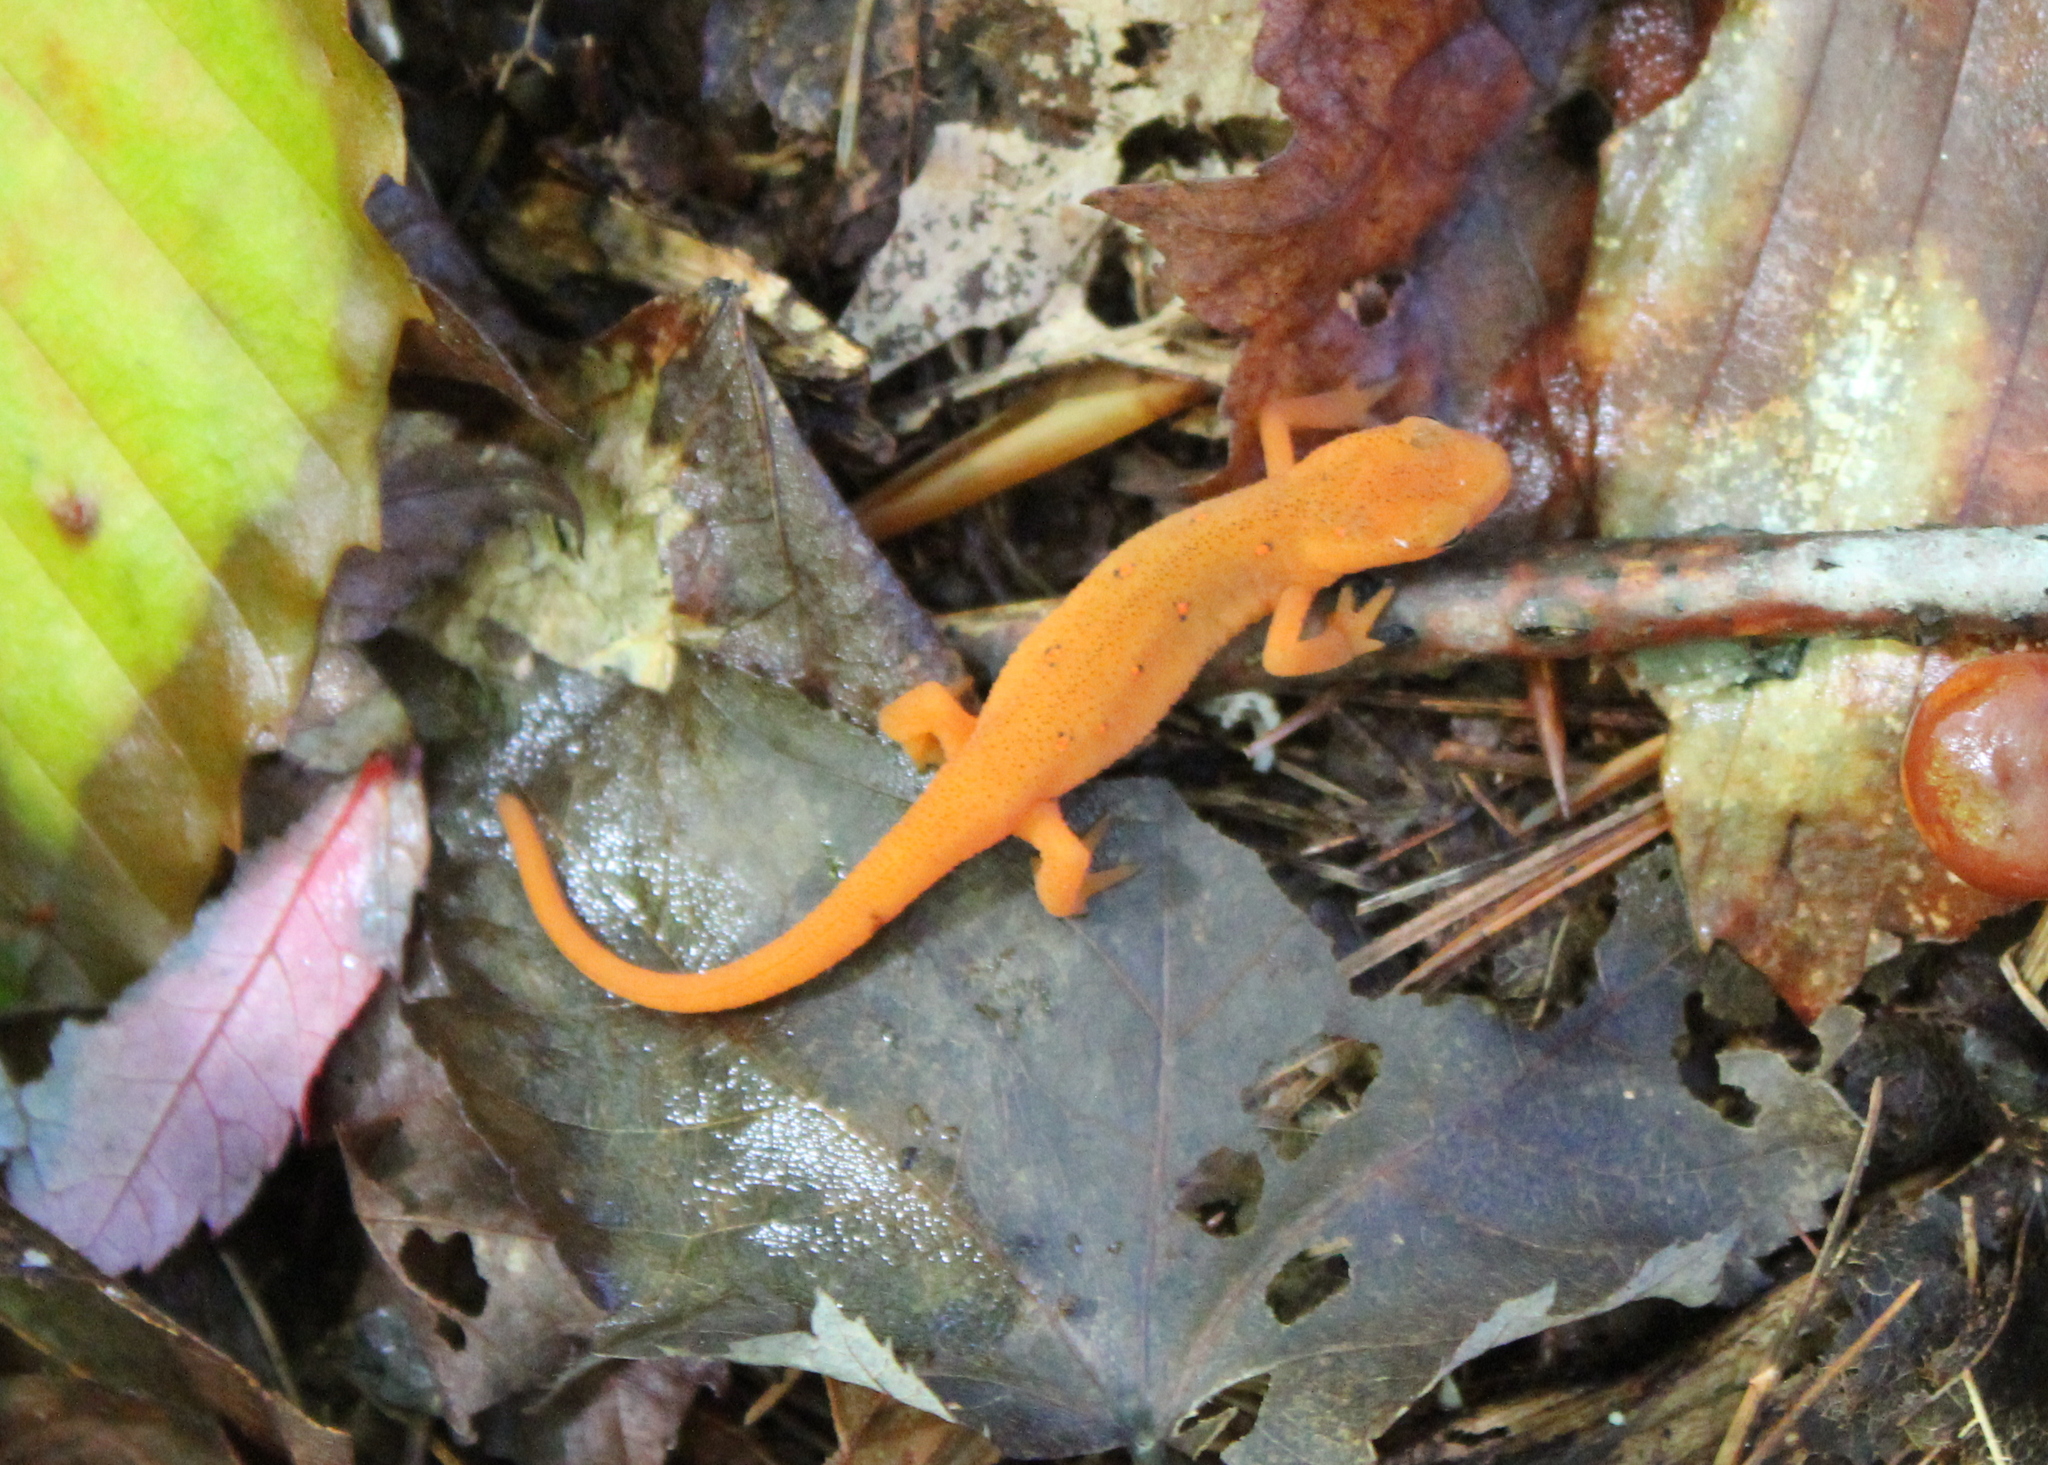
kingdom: Animalia
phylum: Chordata
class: Amphibia
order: Caudata
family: Salamandridae
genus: Notophthalmus
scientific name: Notophthalmus viridescens
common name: Eastern newt
